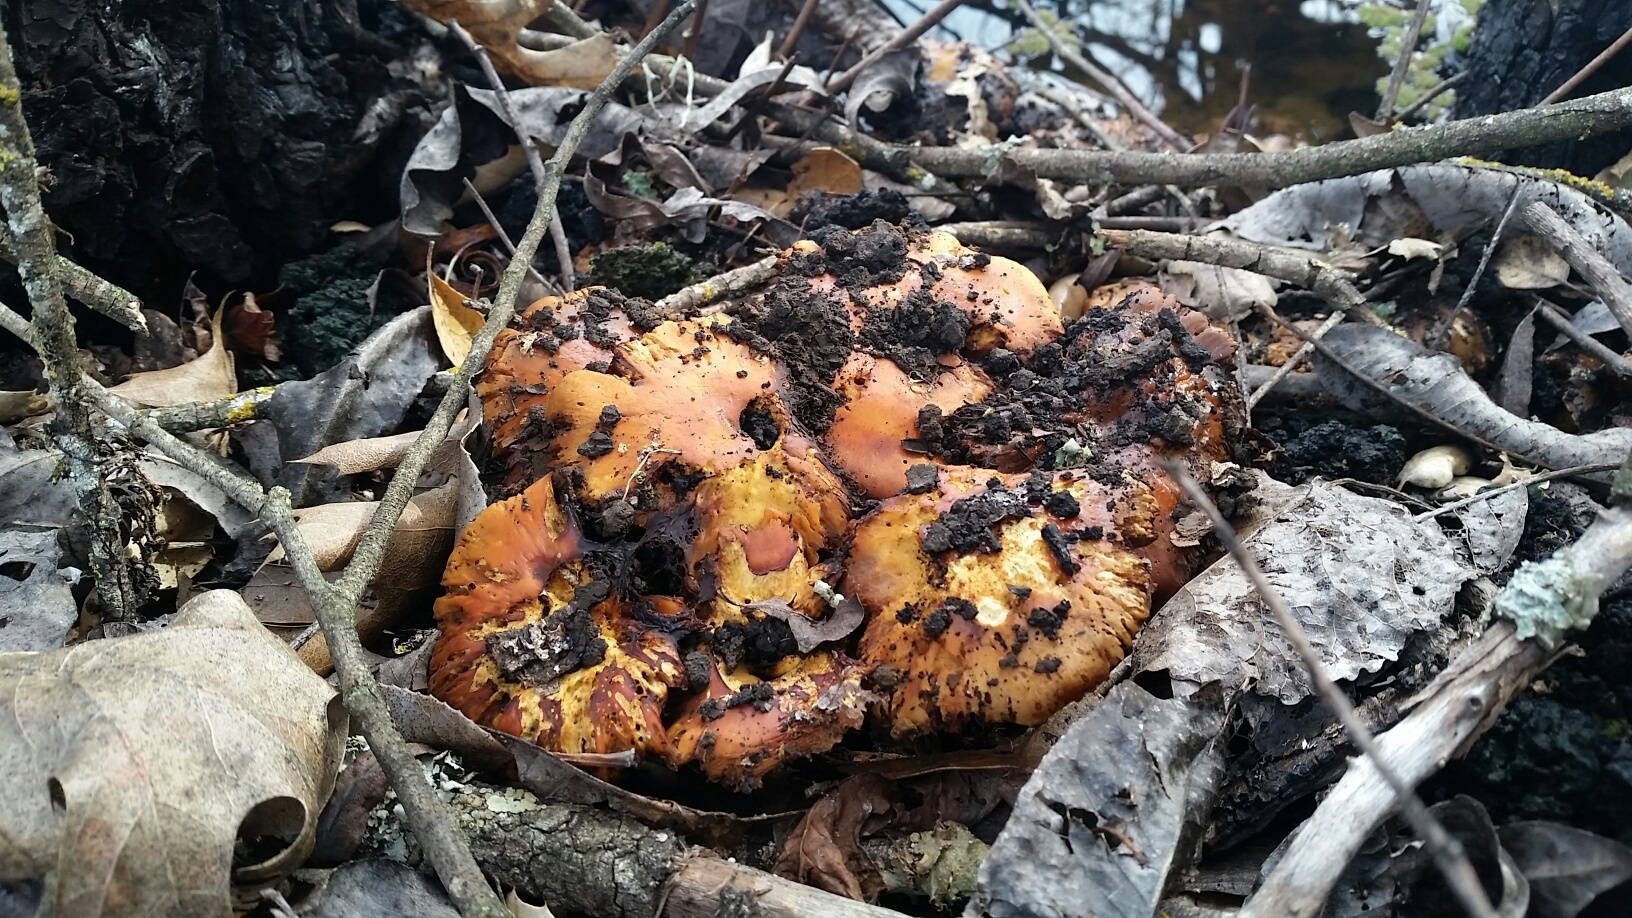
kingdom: Fungi
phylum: Basidiomycota
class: Agaricomycetes
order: Agaricales
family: Strophariaceae
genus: Pholiota
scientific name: Pholiota carbonaria
